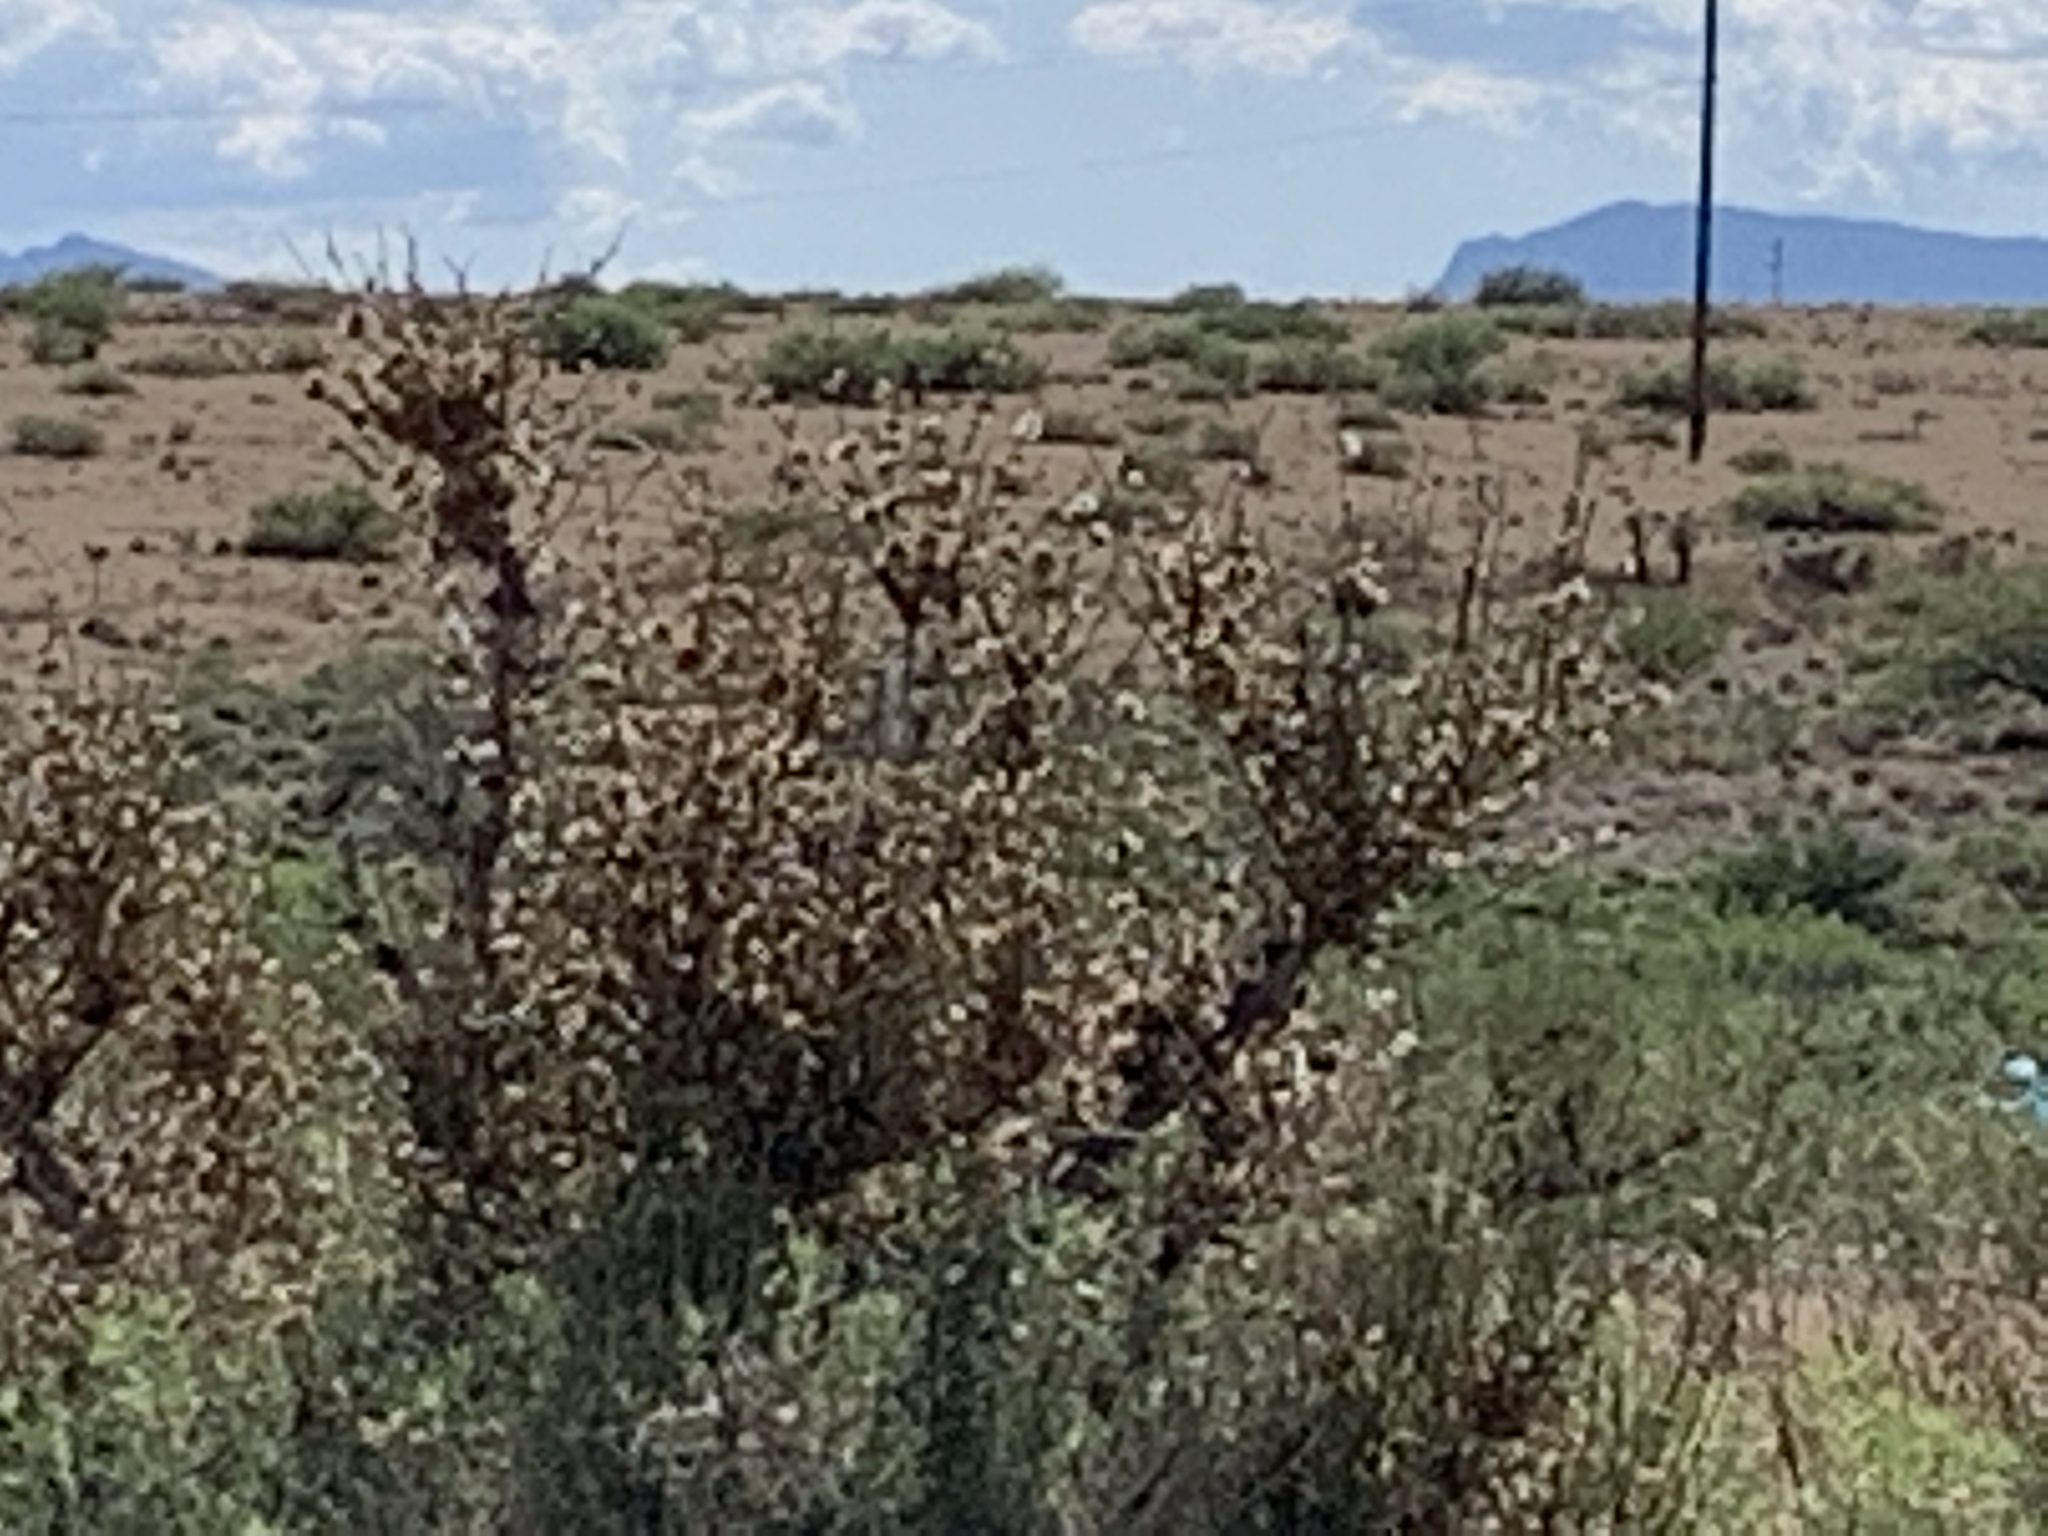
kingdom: Plantae
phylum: Tracheophyta
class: Gnetopsida
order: Ephedrales
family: Ephedraceae
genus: Ephedra
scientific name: Ephedra trifurca
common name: Mexican-tea
